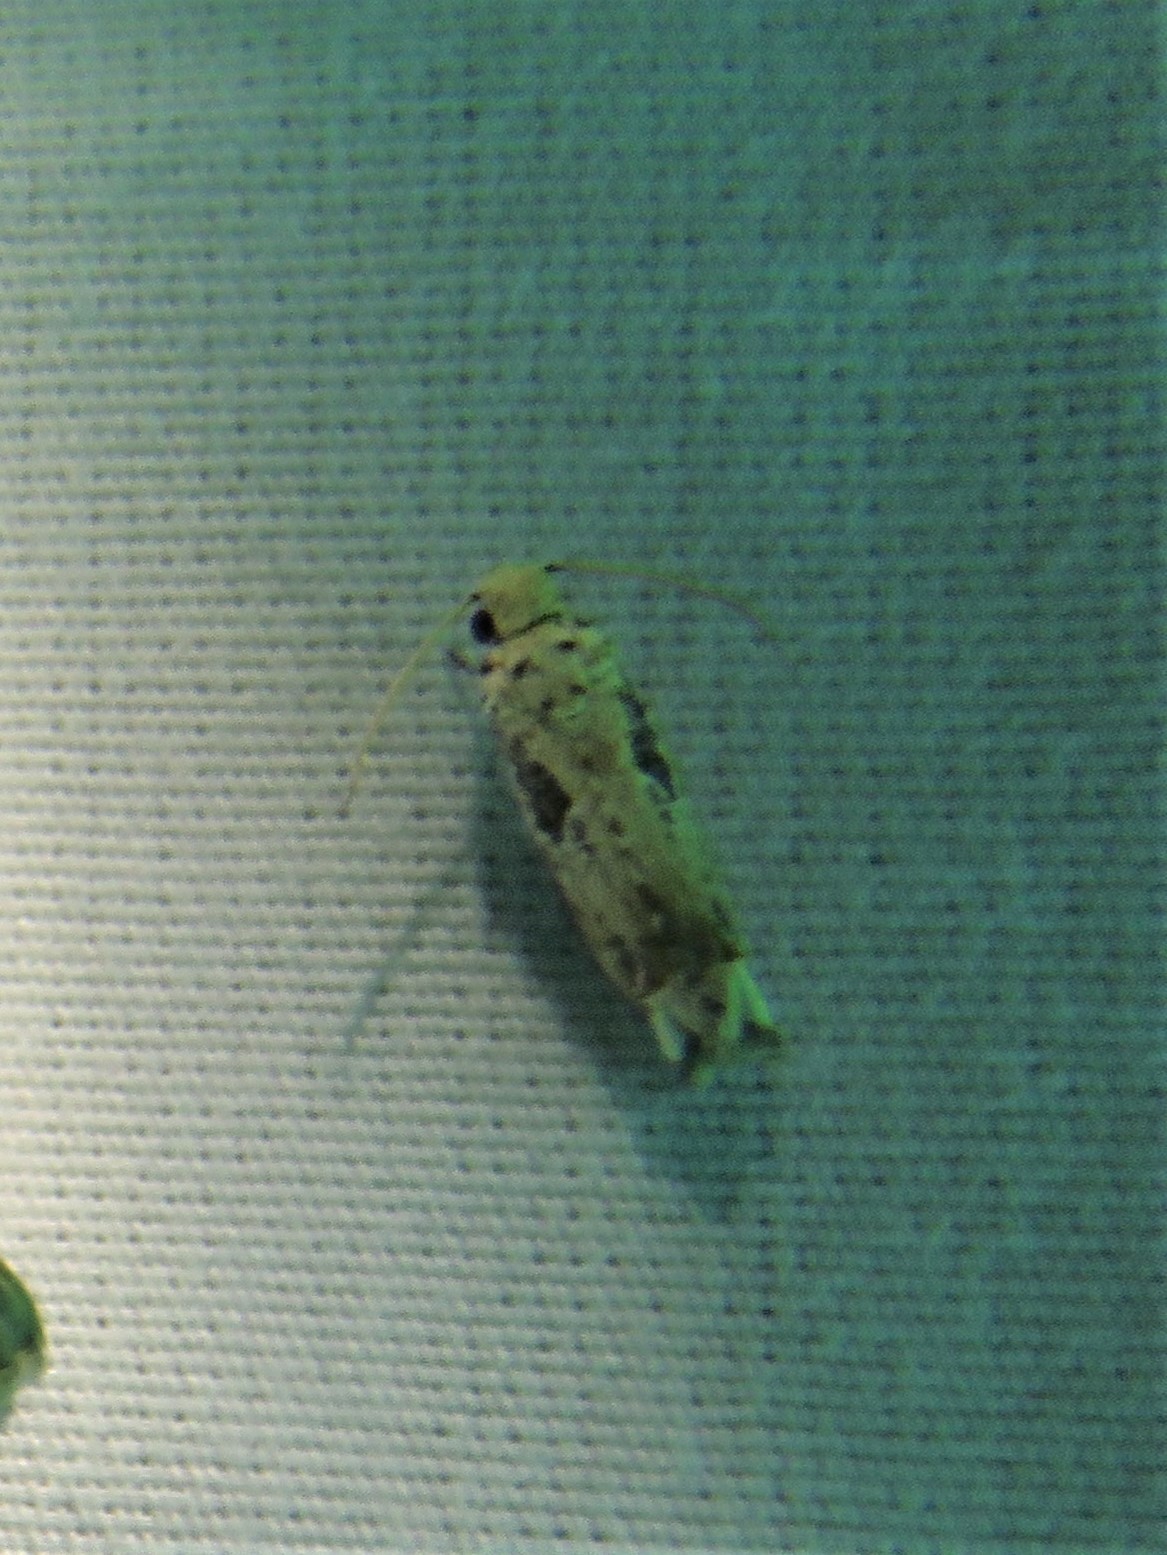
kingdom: Animalia
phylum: Arthropoda
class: Insecta
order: Lepidoptera
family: Tortricidae
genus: Epiblema
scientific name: Epiblema chromata
